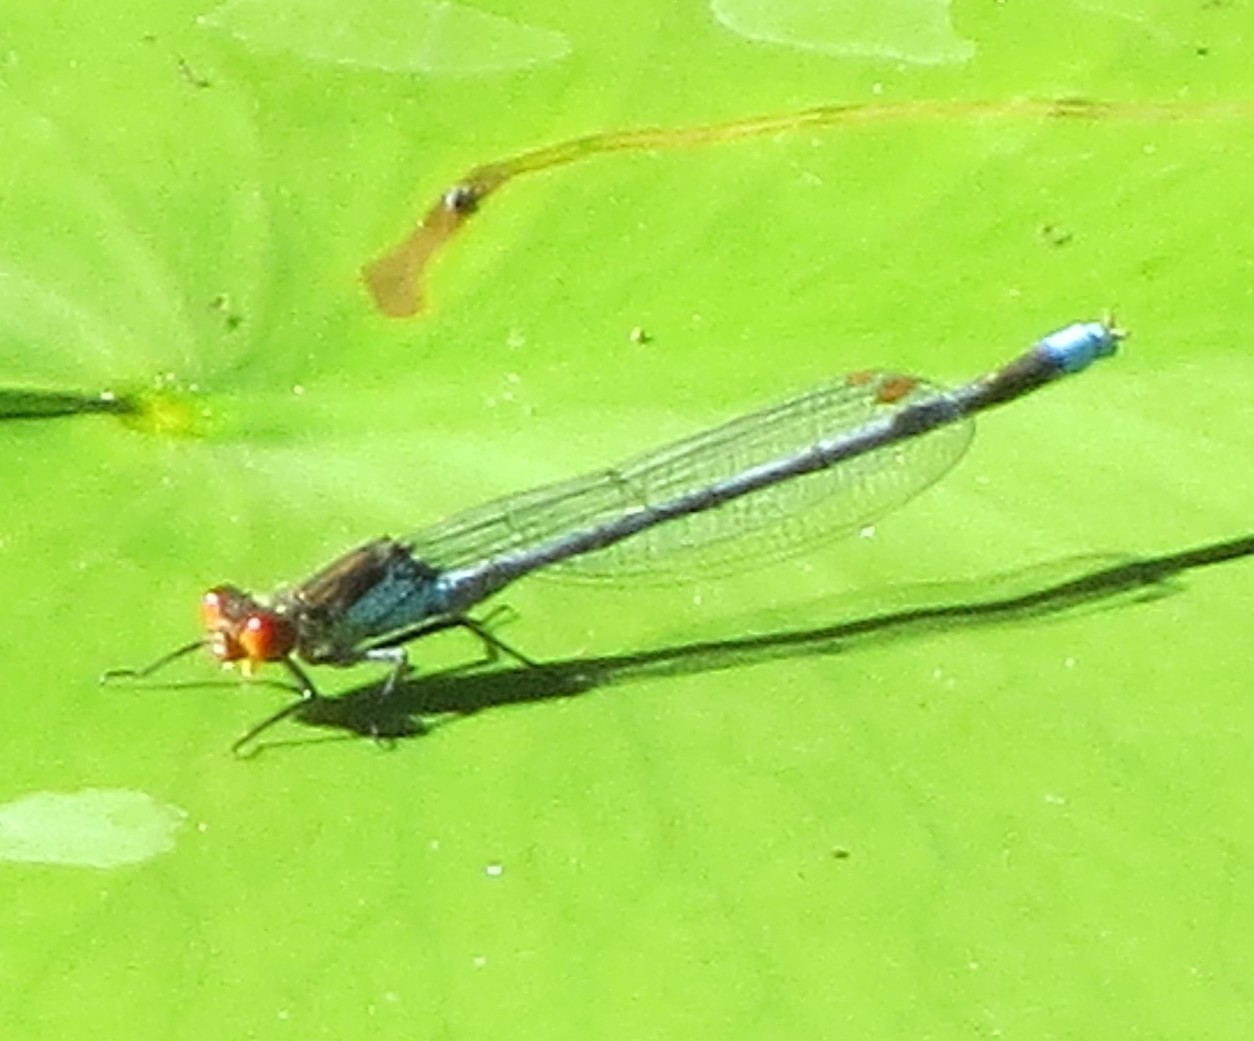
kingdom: Animalia
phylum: Arthropoda
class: Insecta
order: Odonata
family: Coenagrionidae
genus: Erythromma
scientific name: Erythromma najas
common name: Red-eyed damselfly
